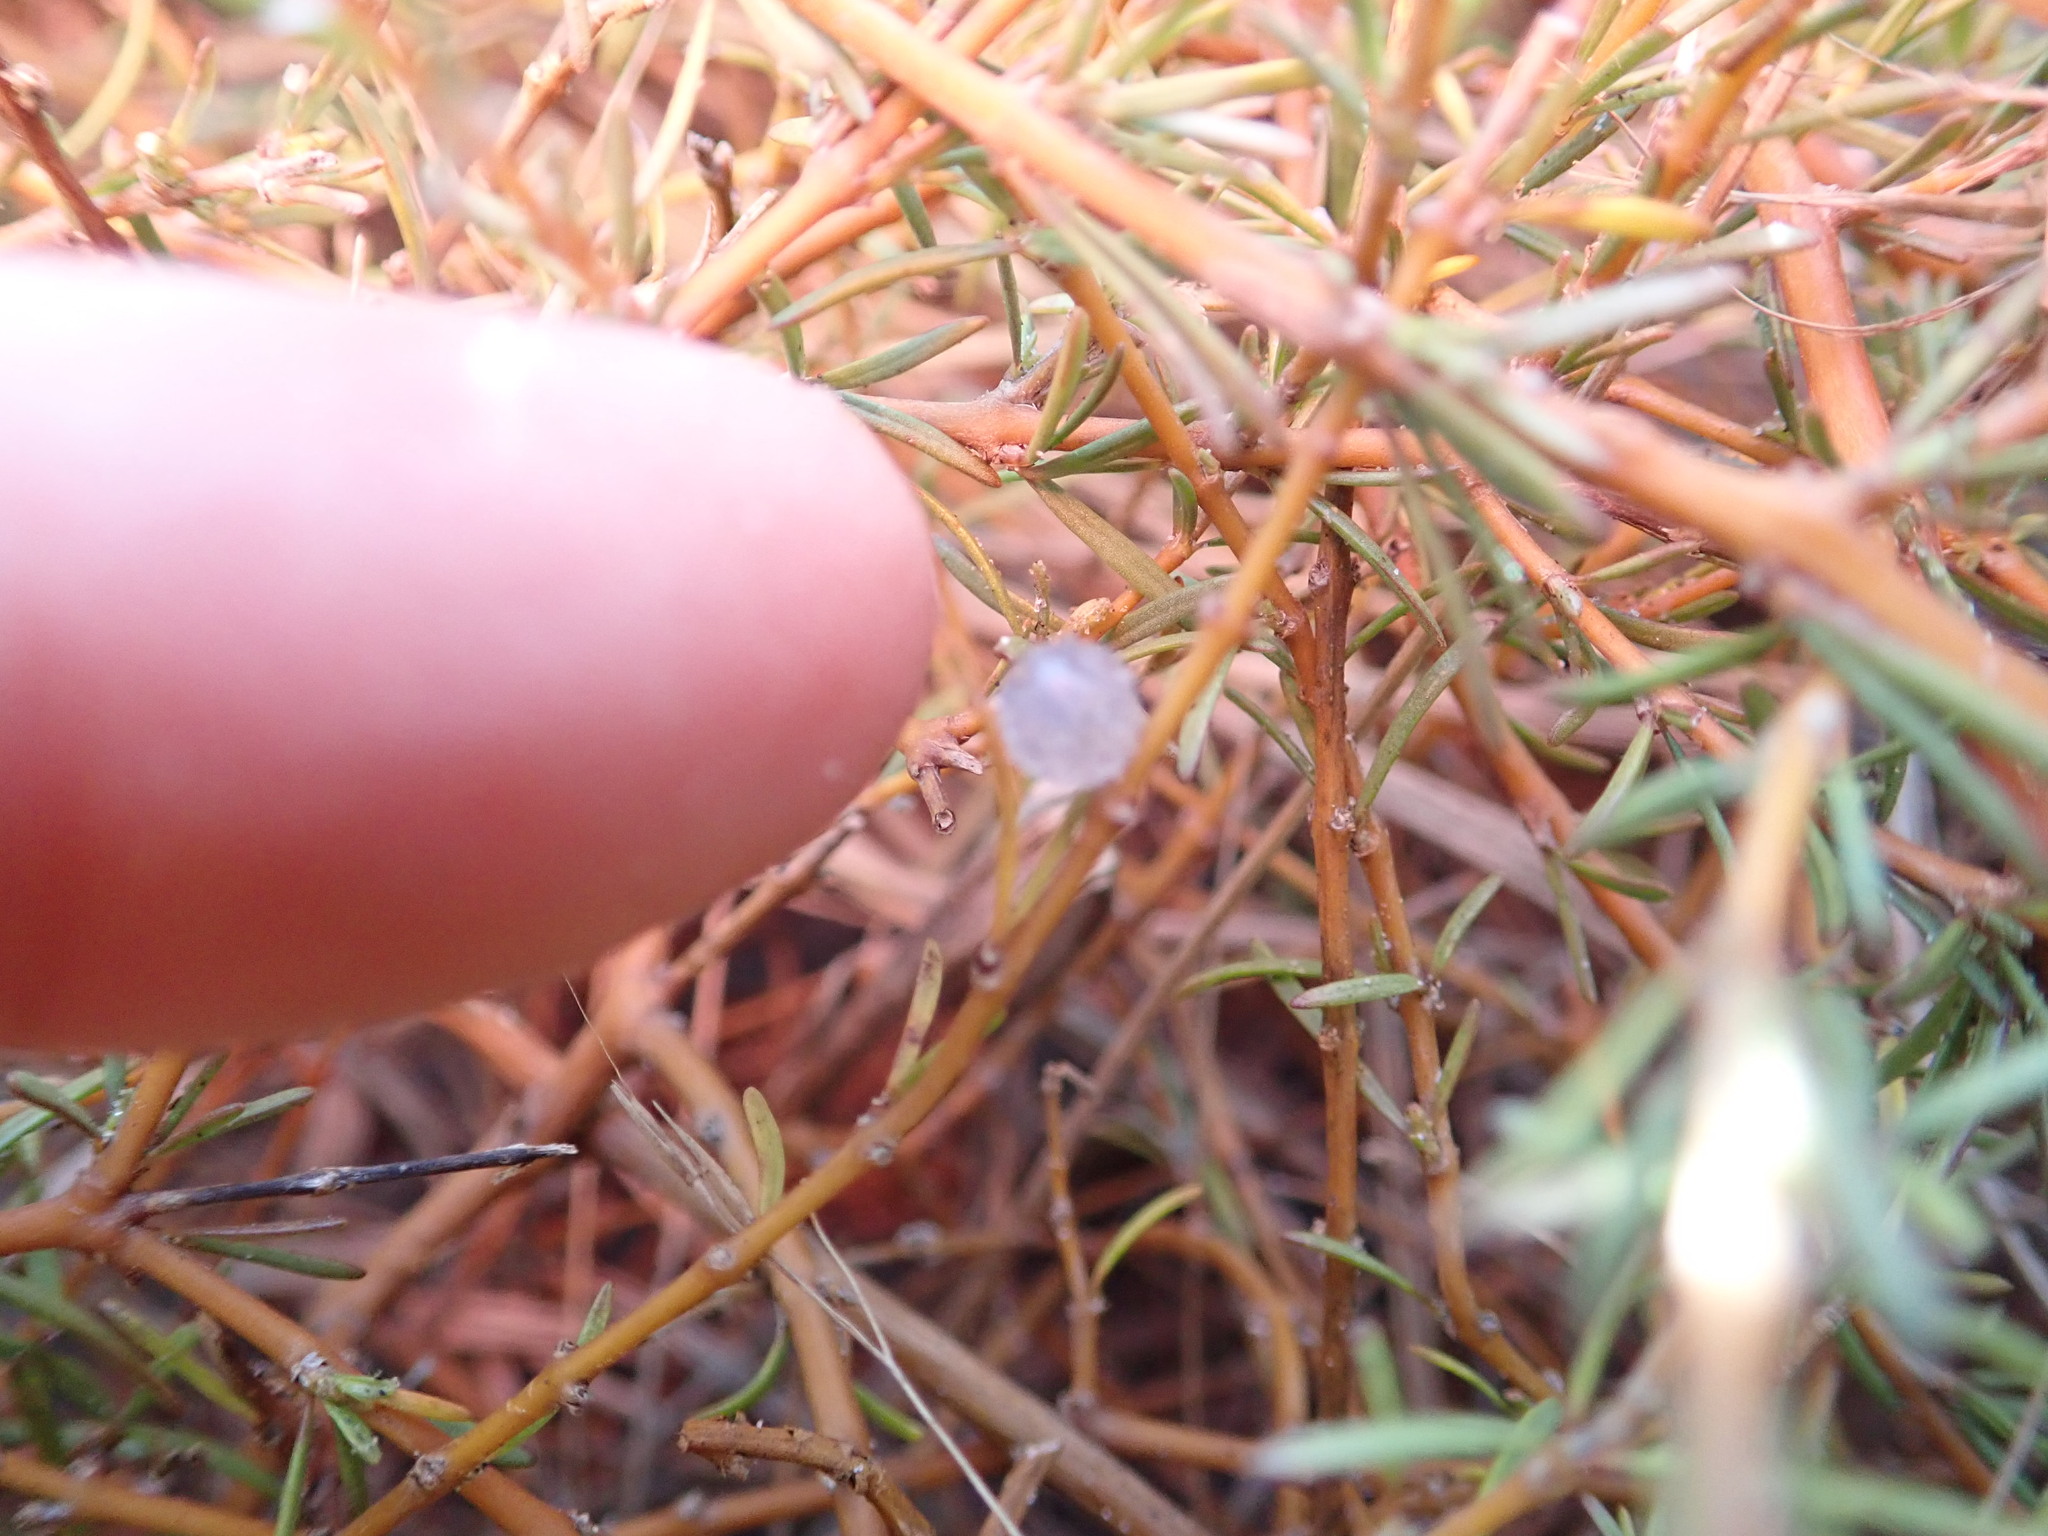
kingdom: Plantae
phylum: Tracheophyta
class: Magnoliopsida
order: Gentianales
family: Rubiaceae
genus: Coprosma
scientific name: Coprosma acerosa
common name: Sand coprosma
